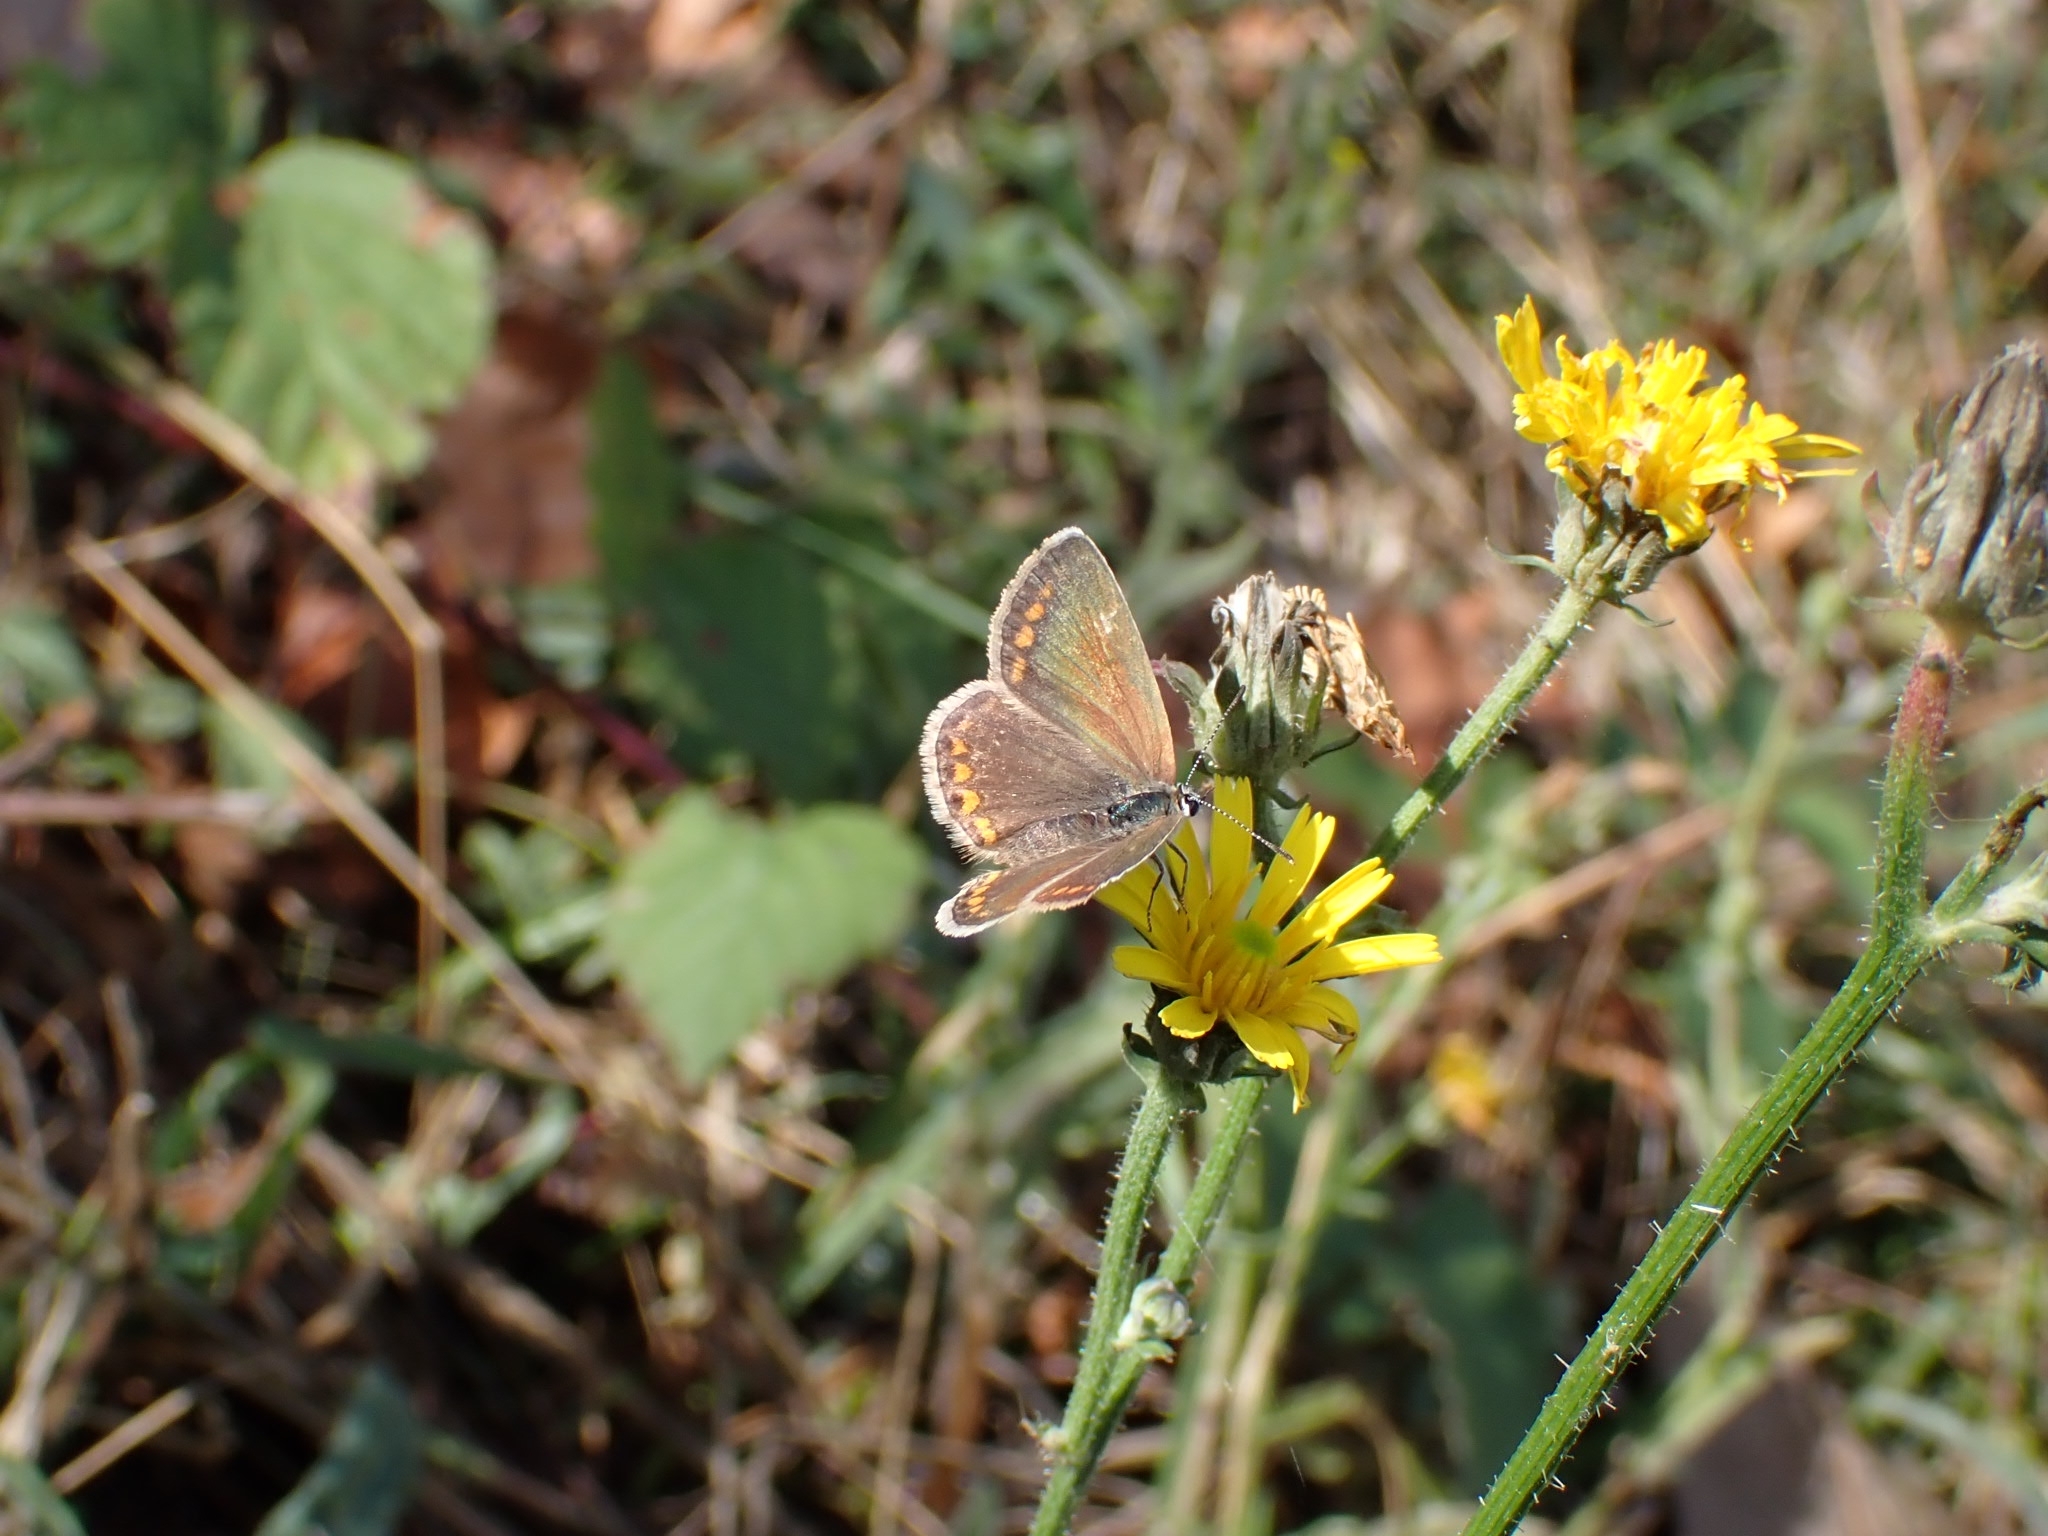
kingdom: Animalia
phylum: Arthropoda
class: Insecta
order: Lepidoptera
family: Lycaenidae
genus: Polyommatus
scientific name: Polyommatus icarus
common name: Common blue
